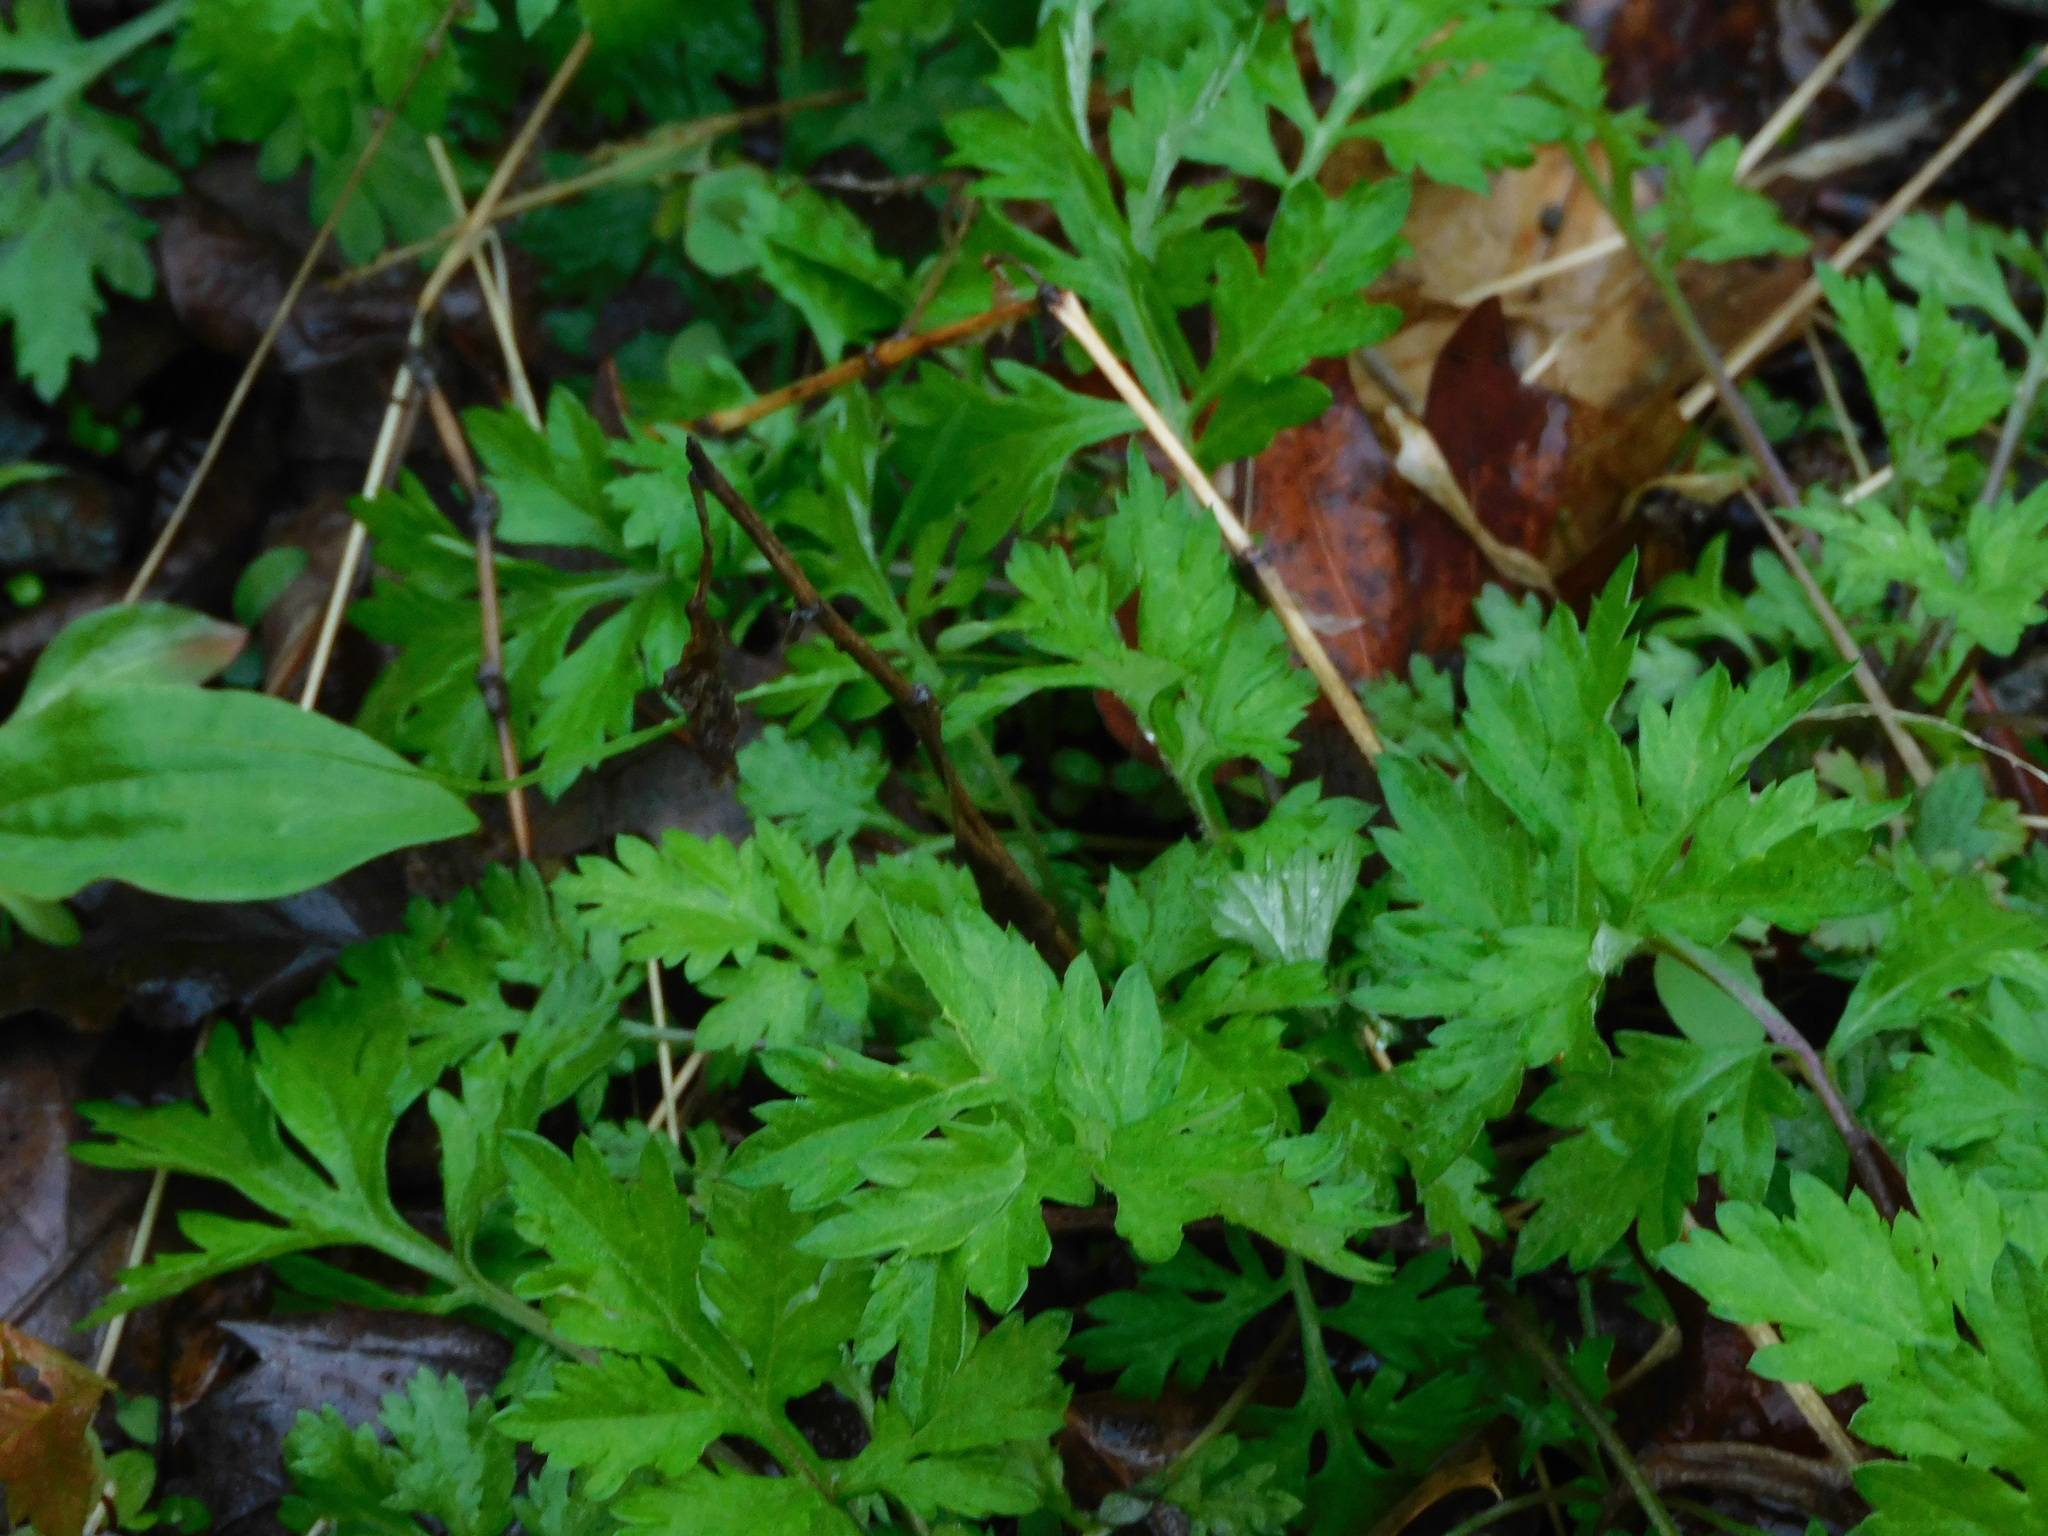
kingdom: Plantae
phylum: Tracheophyta
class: Magnoliopsida
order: Asterales
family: Asteraceae
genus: Artemisia
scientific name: Artemisia vulgaris
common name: Mugwort
